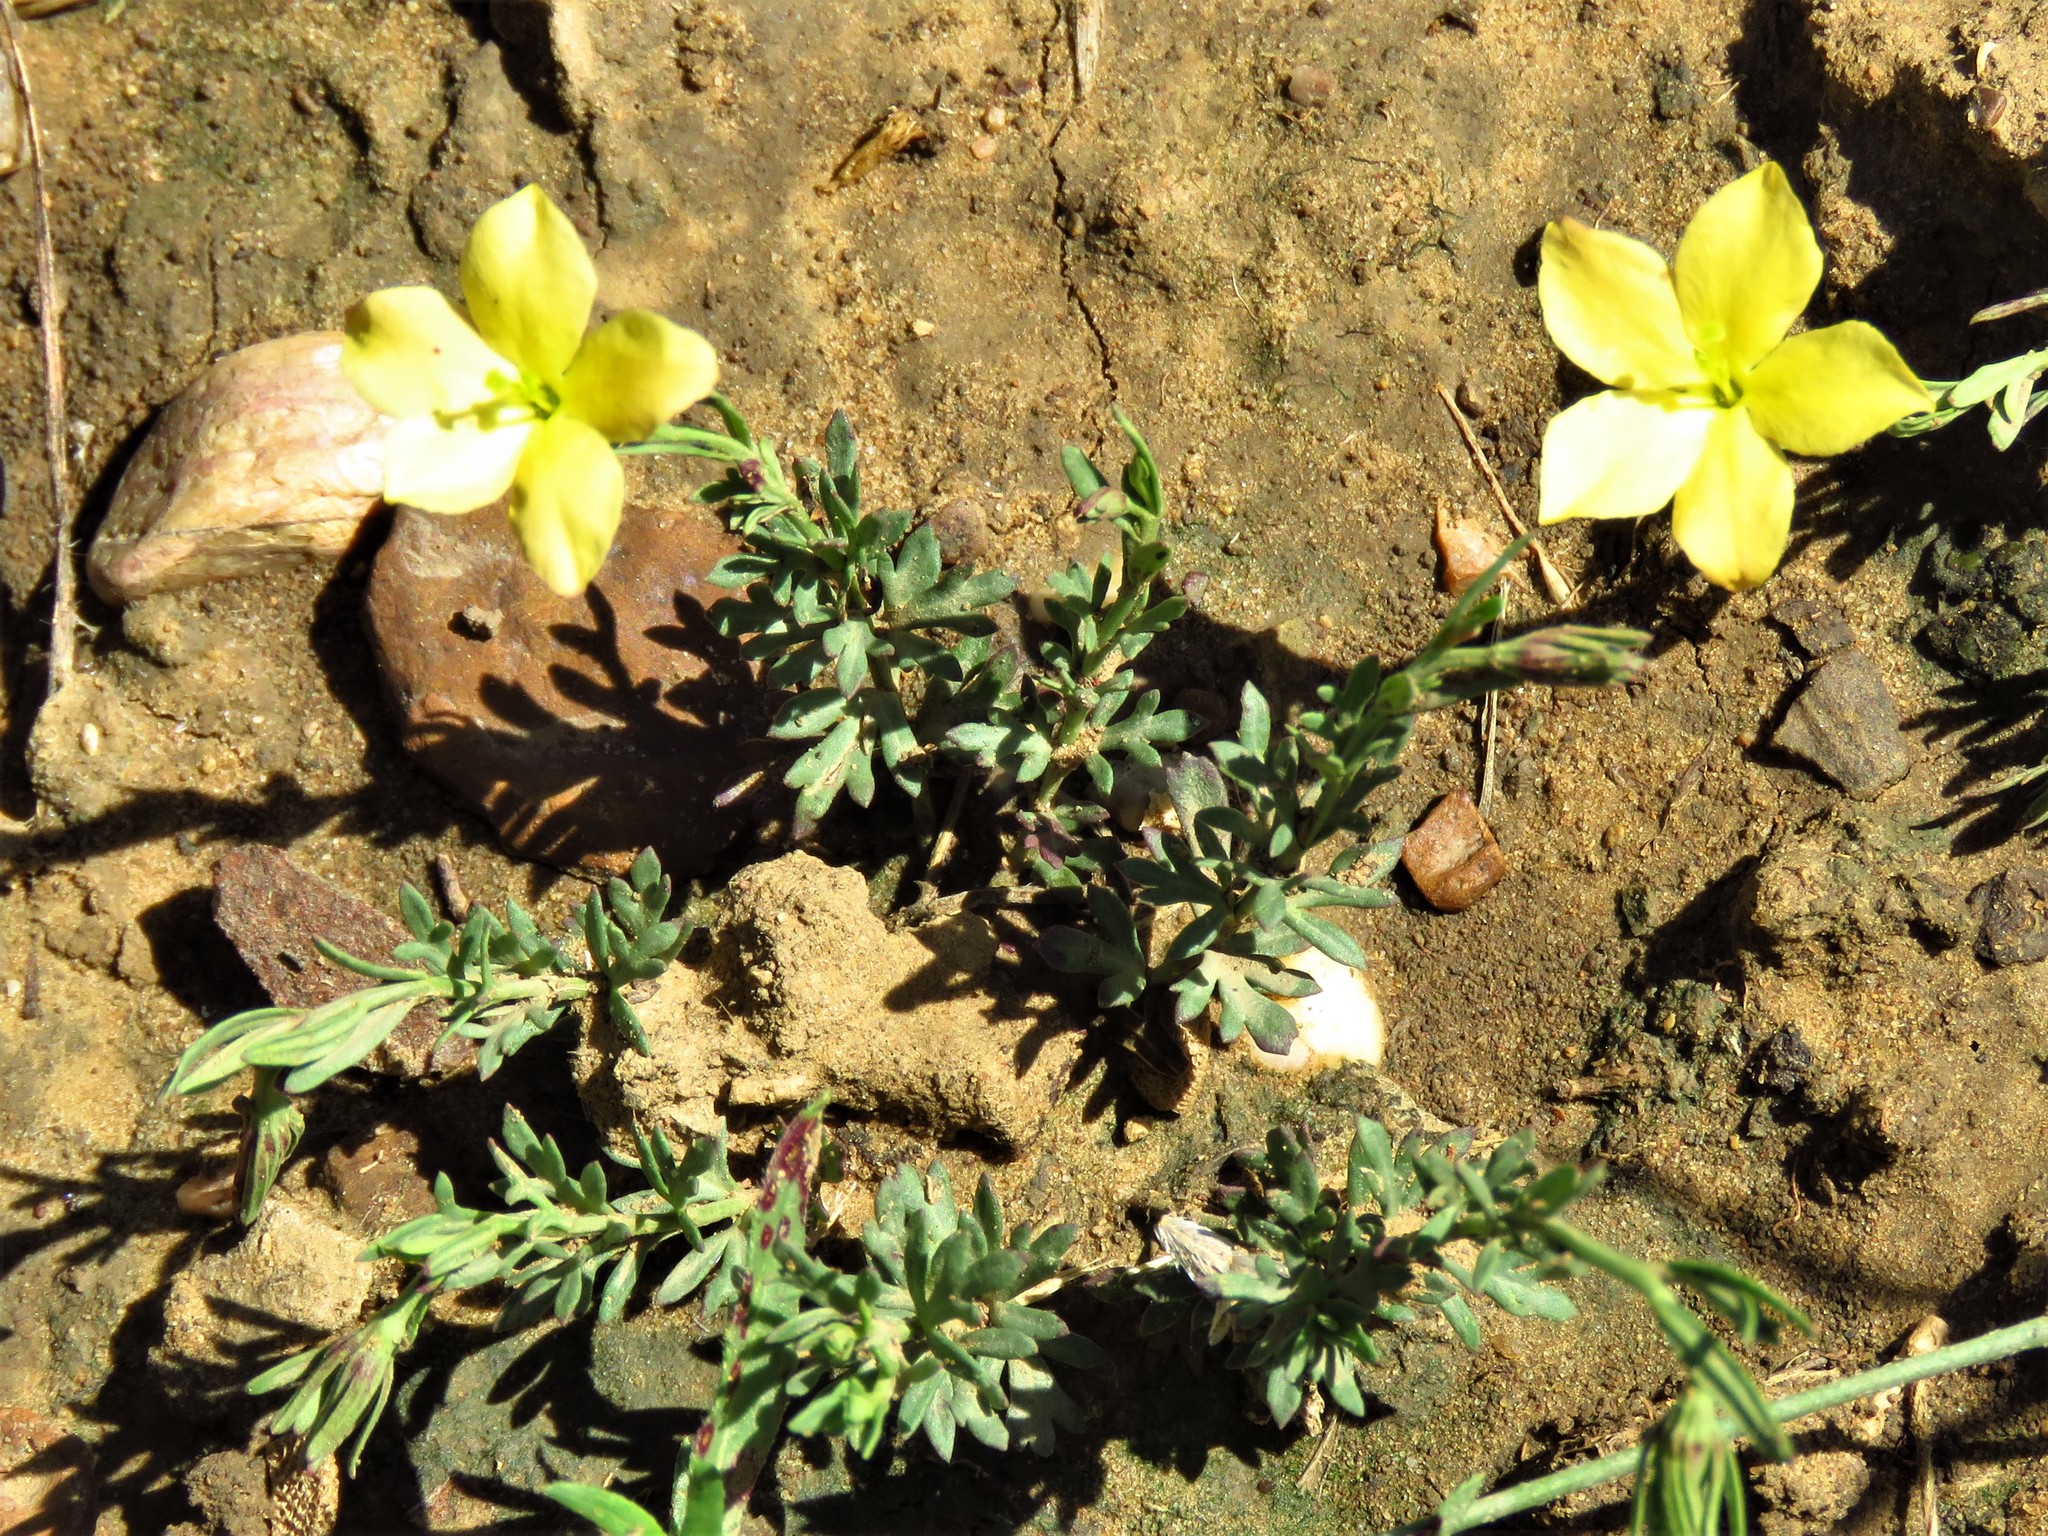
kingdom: Plantae
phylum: Tracheophyta
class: Magnoliopsida
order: Lamiales
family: Oleaceae
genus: Menodora
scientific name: Menodora heterophylla
